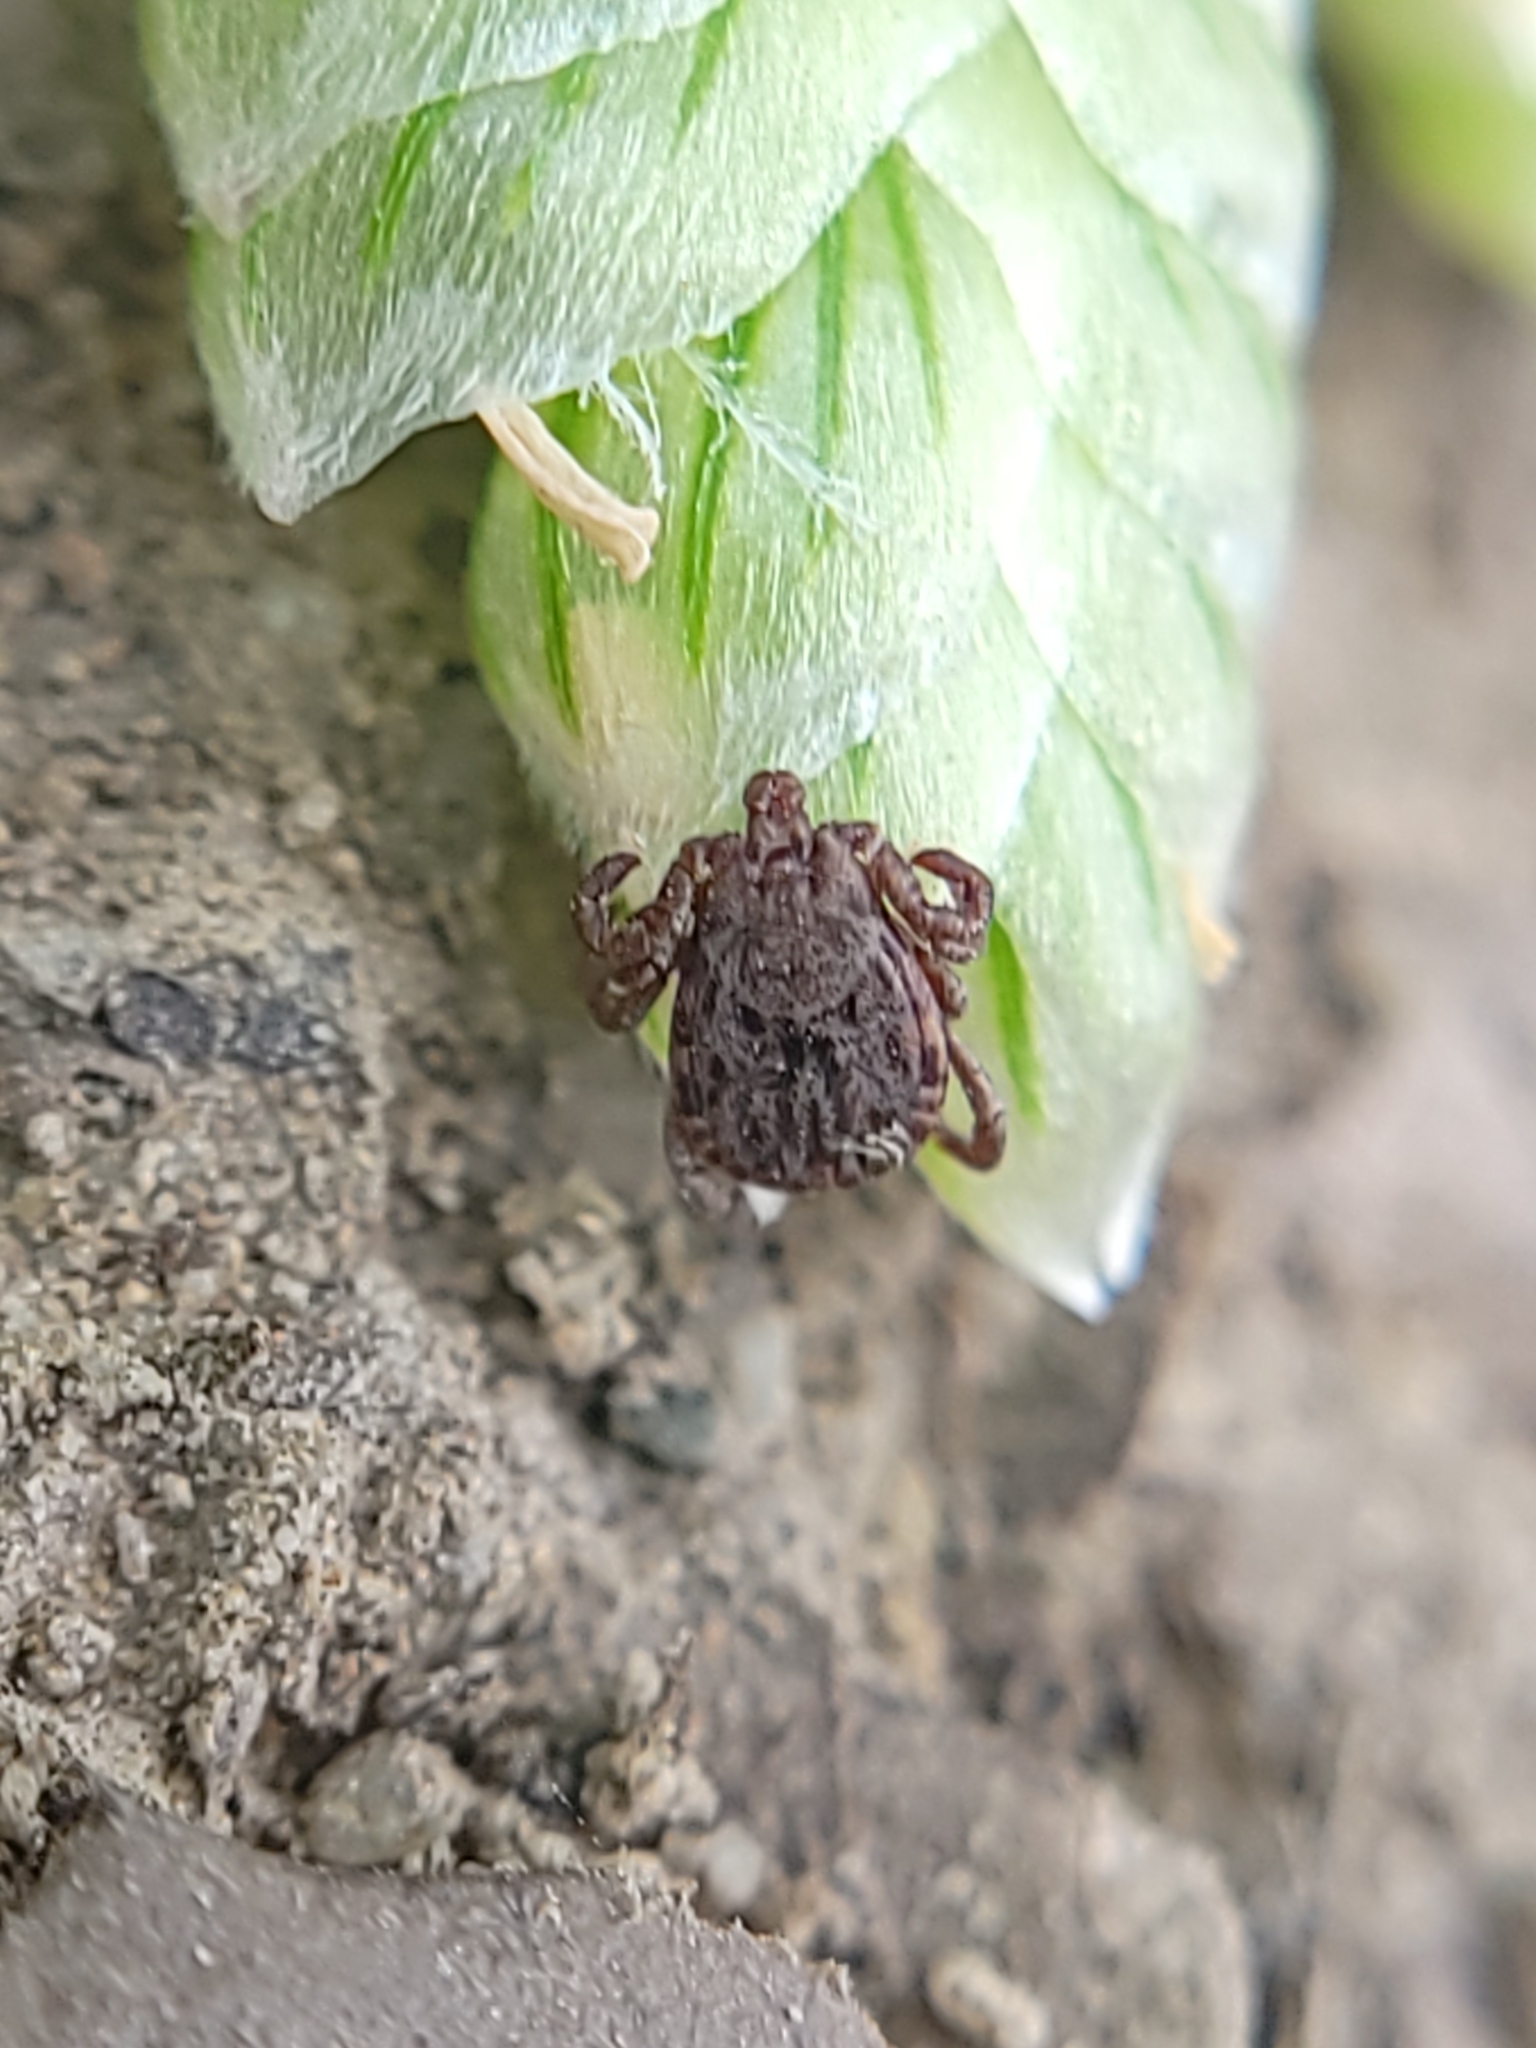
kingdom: Animalia
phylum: Arthropoda
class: Arachnida
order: Ixodida
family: Ixodidae
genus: Dermacentor
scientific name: Dermacentor occidentalis
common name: Net tick
